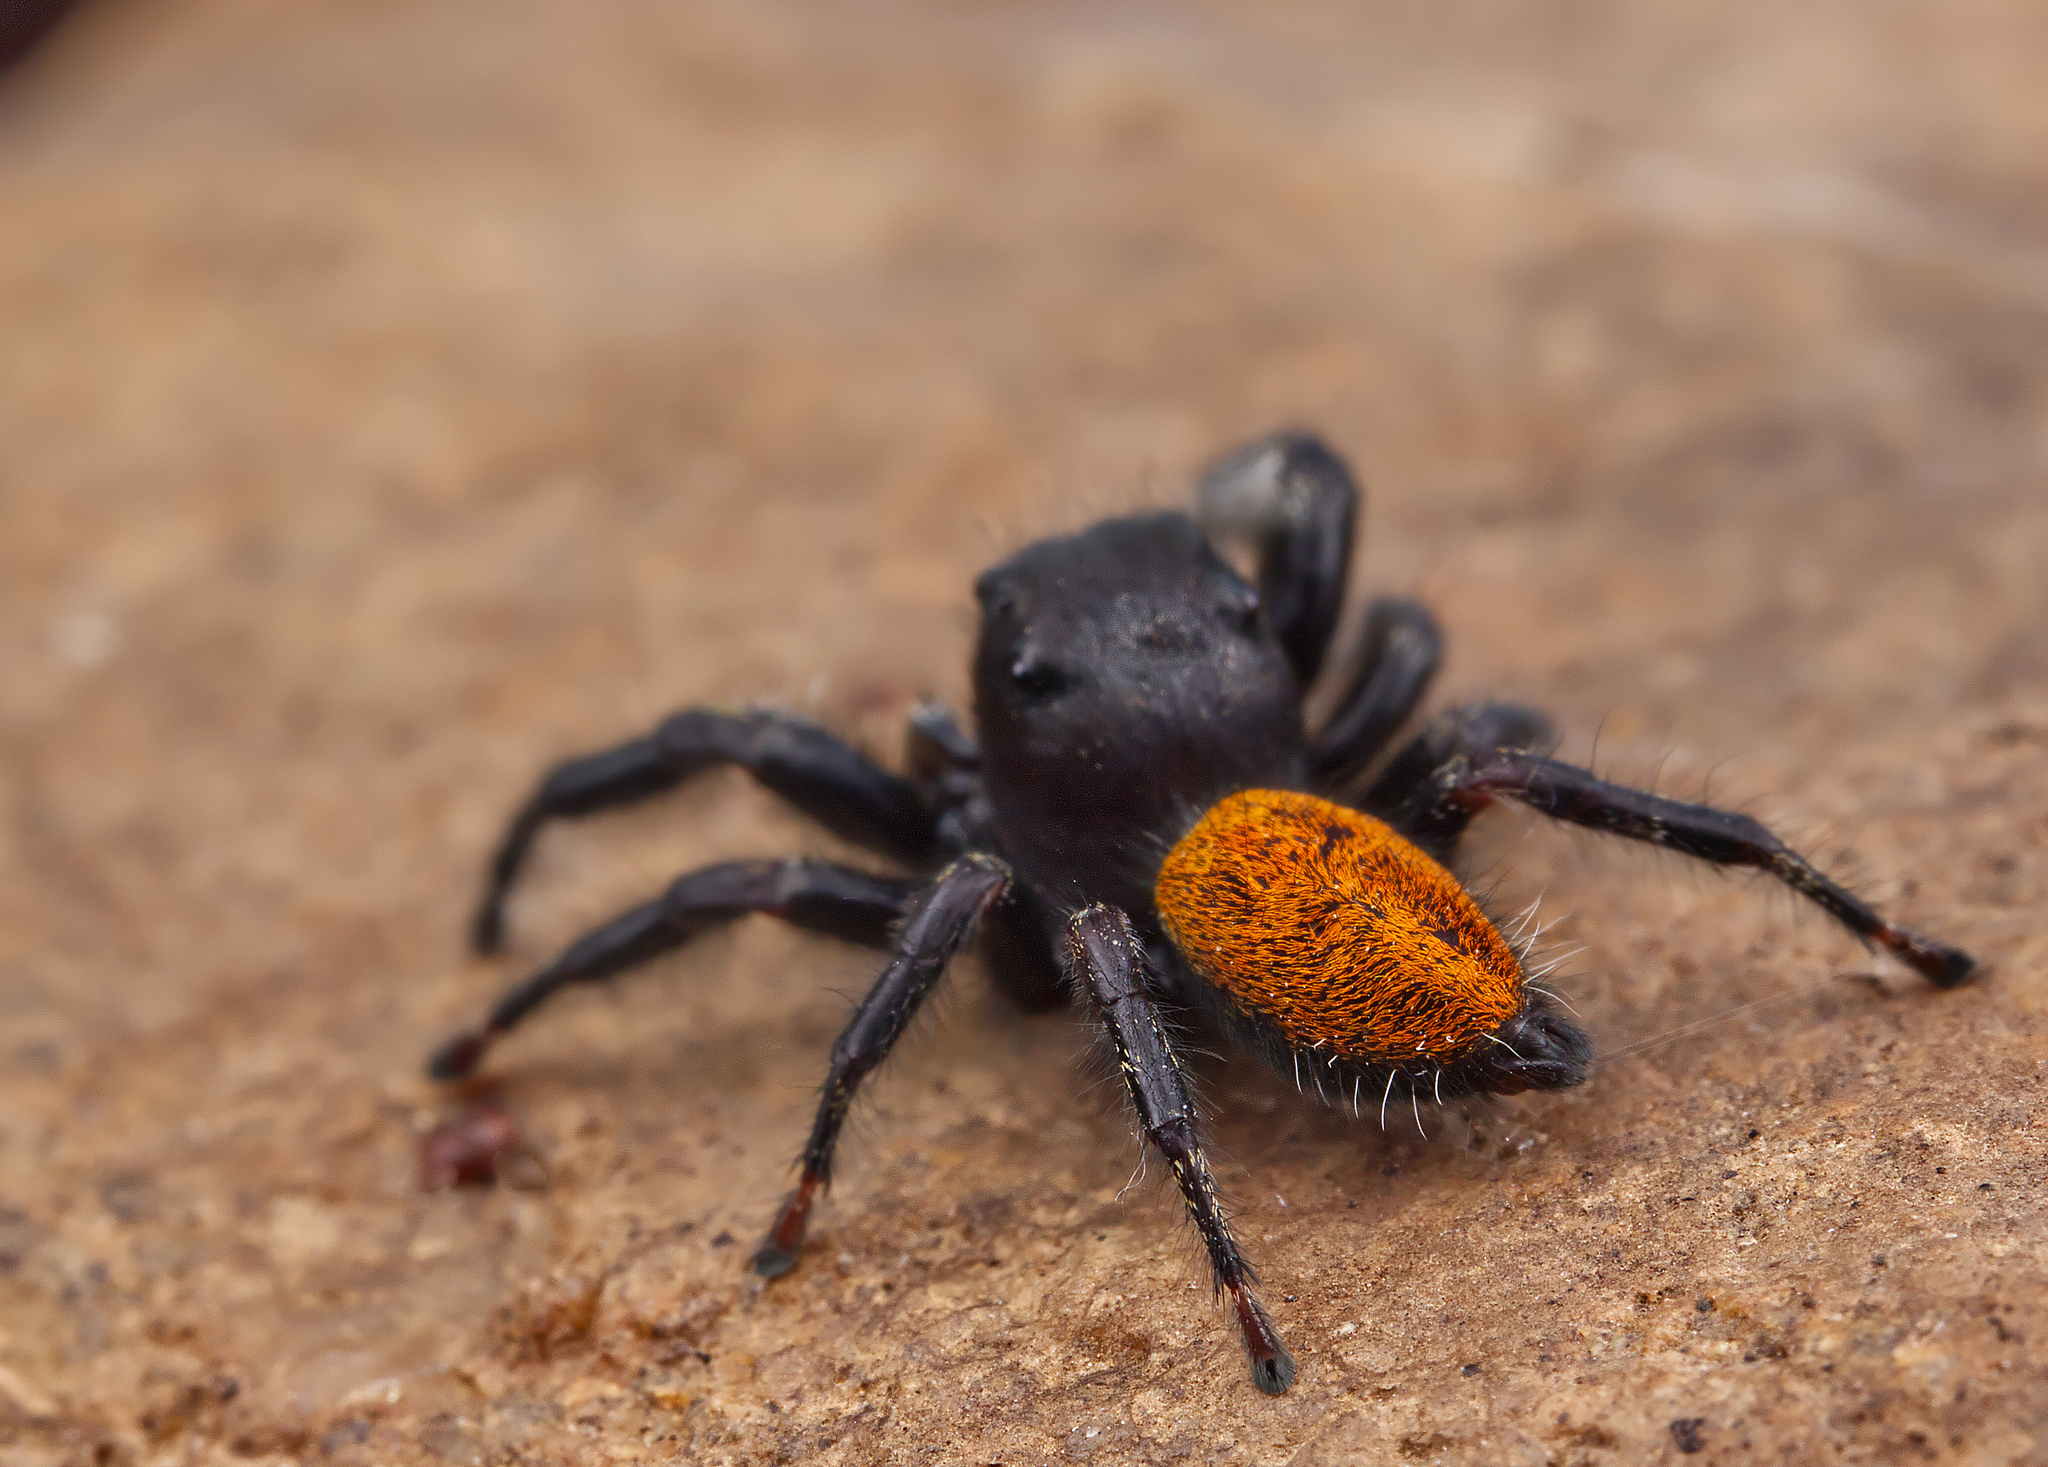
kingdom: Animalia
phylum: Arthropoda
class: Arachnida
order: Araneae
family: Salticidae
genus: Phidippus
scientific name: Phidippus princeps
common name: Grayish jumping spider
